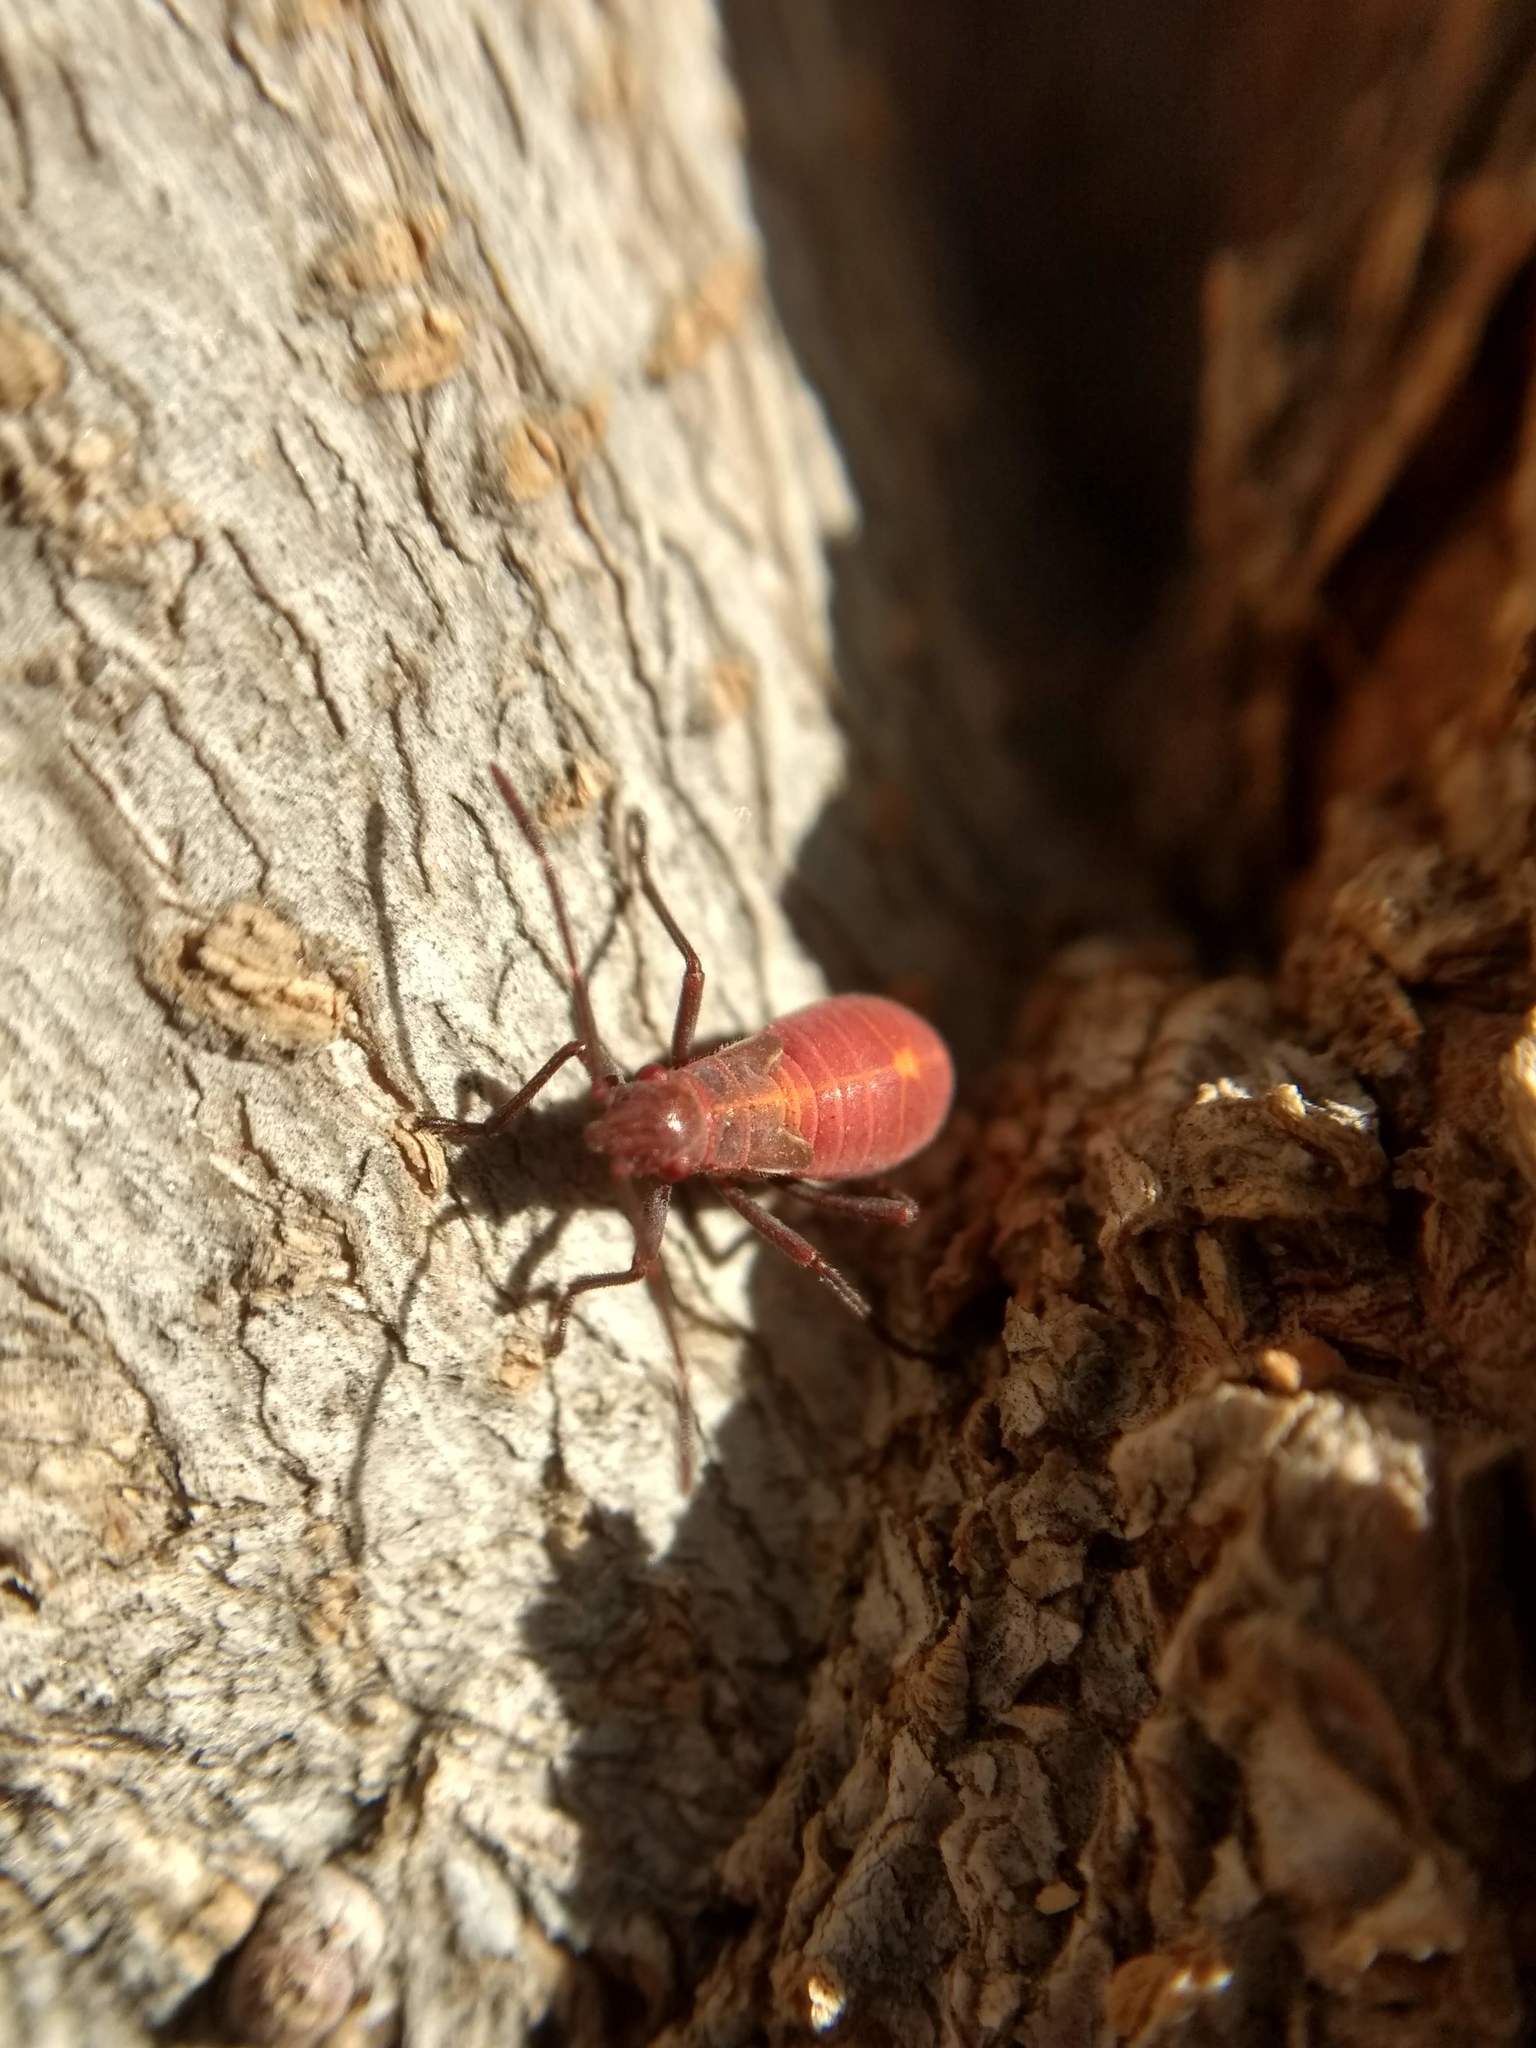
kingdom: Animalia
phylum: Arthropoda
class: Insecta
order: Hemiptera
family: Rhopalidae
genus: Boisea
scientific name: Boisea rubrolineata
